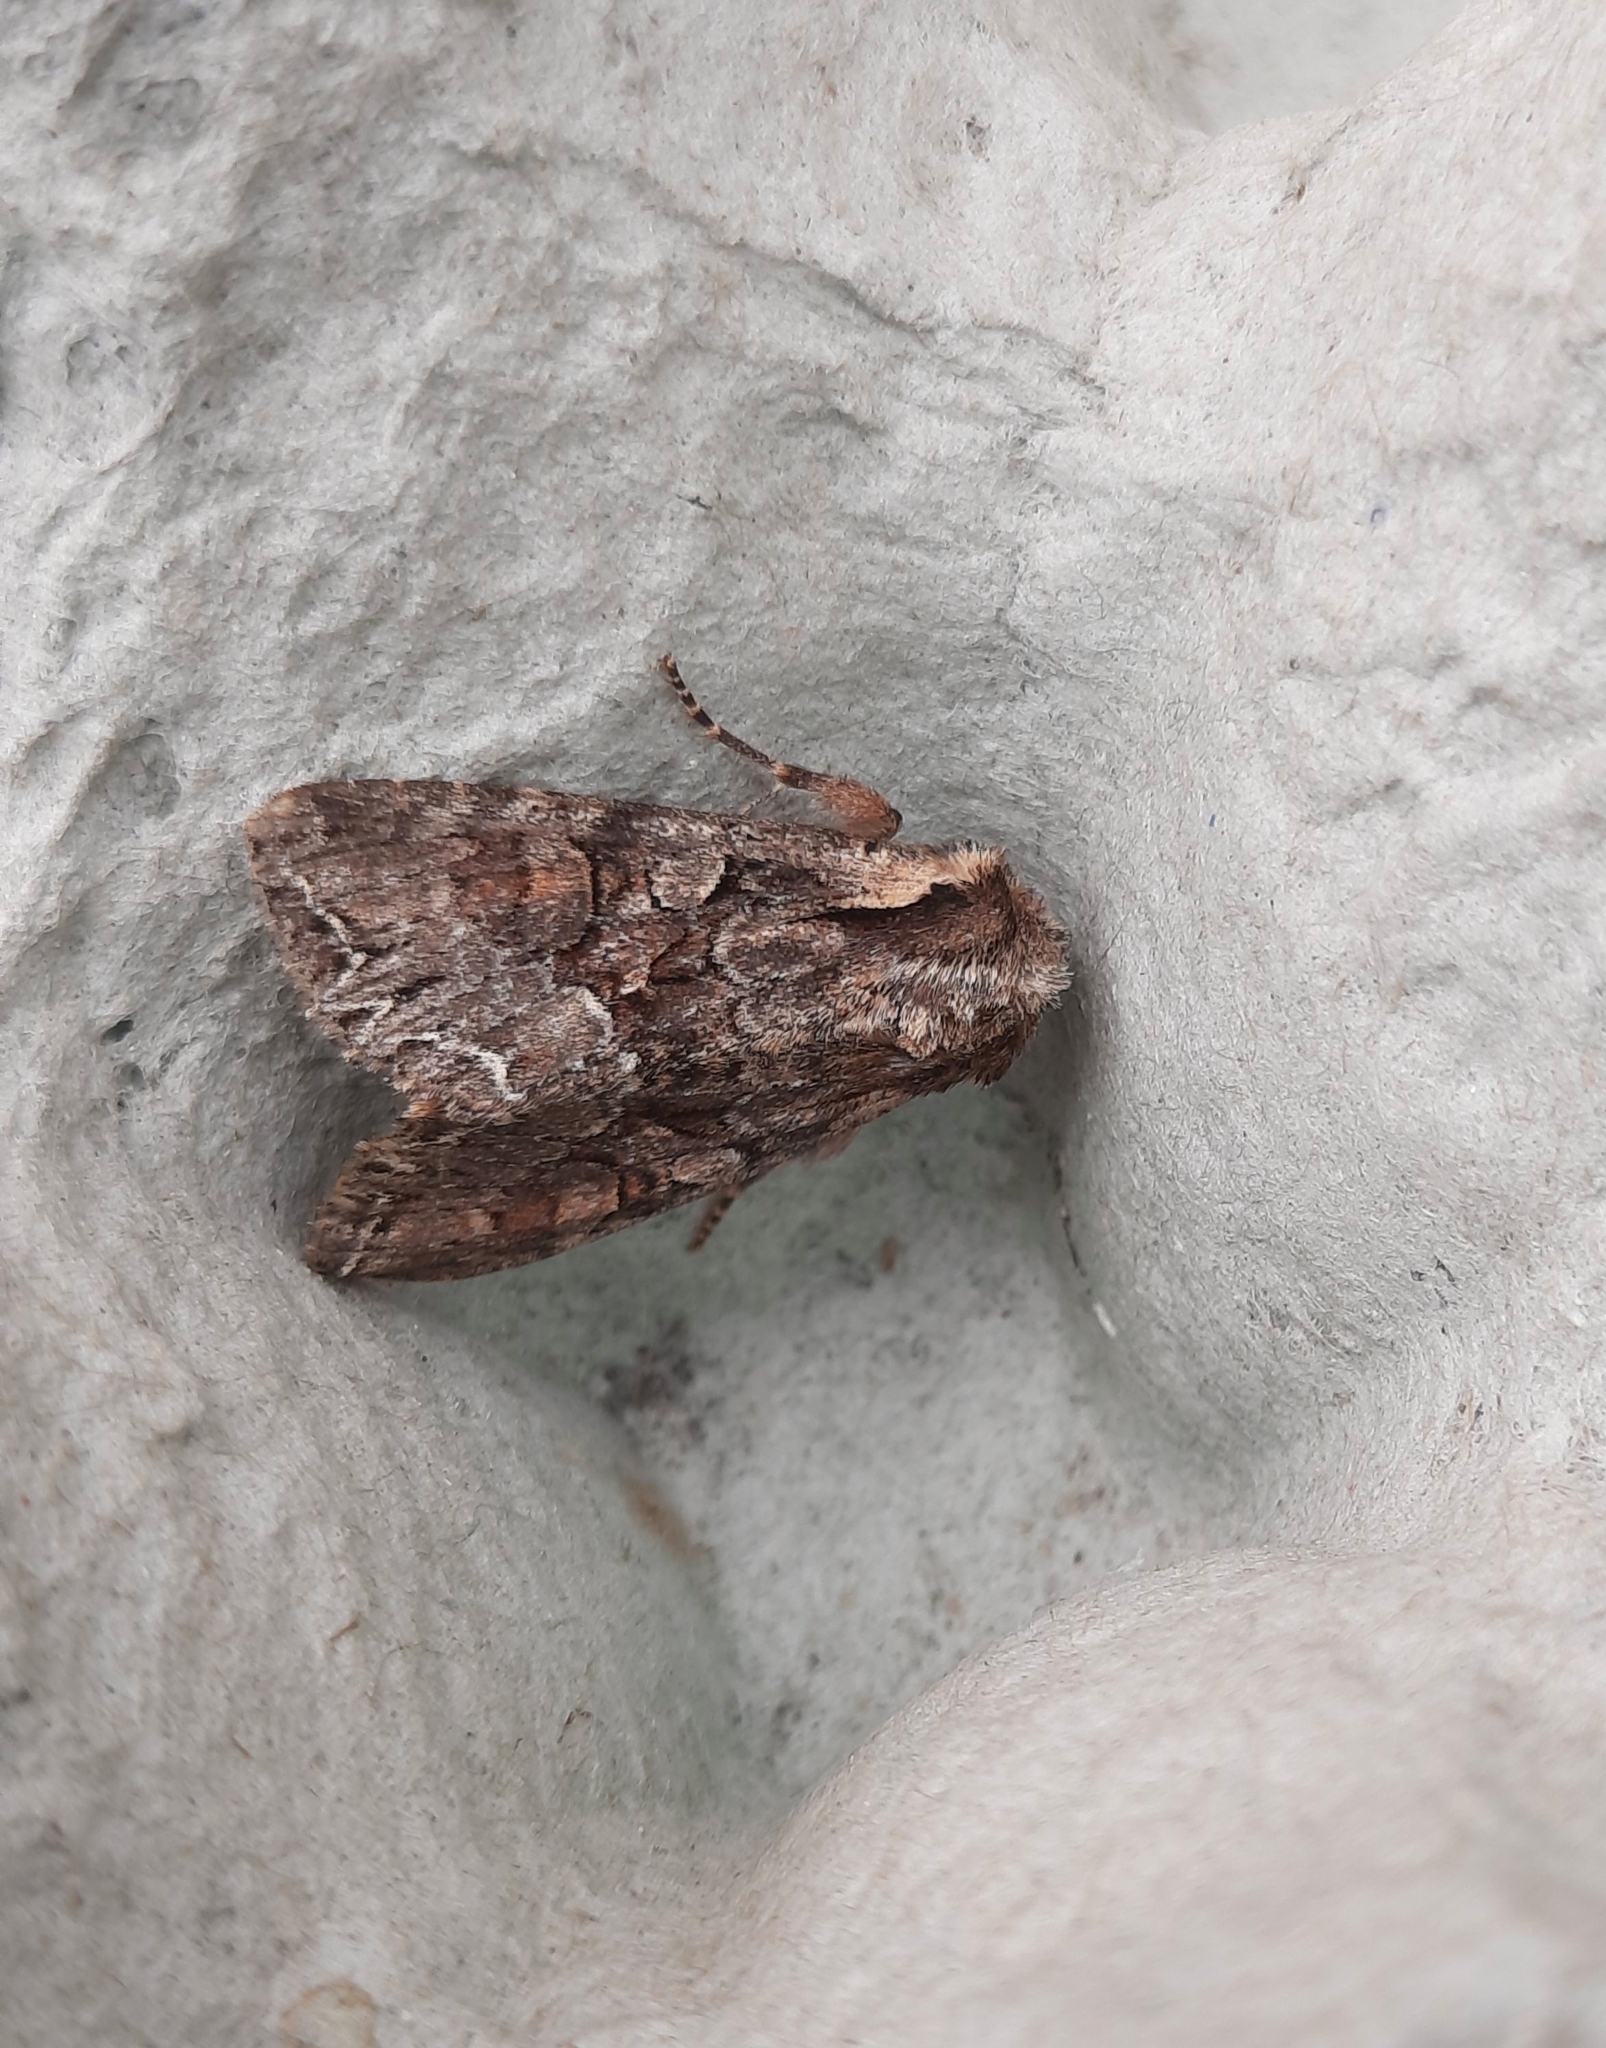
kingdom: Animalia
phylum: Arthropoda
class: Insecta
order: Lepidoptera
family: Noctuidae
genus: Lacanobia
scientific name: Lacanobia thalassina
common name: Pale-shouldered brocade
